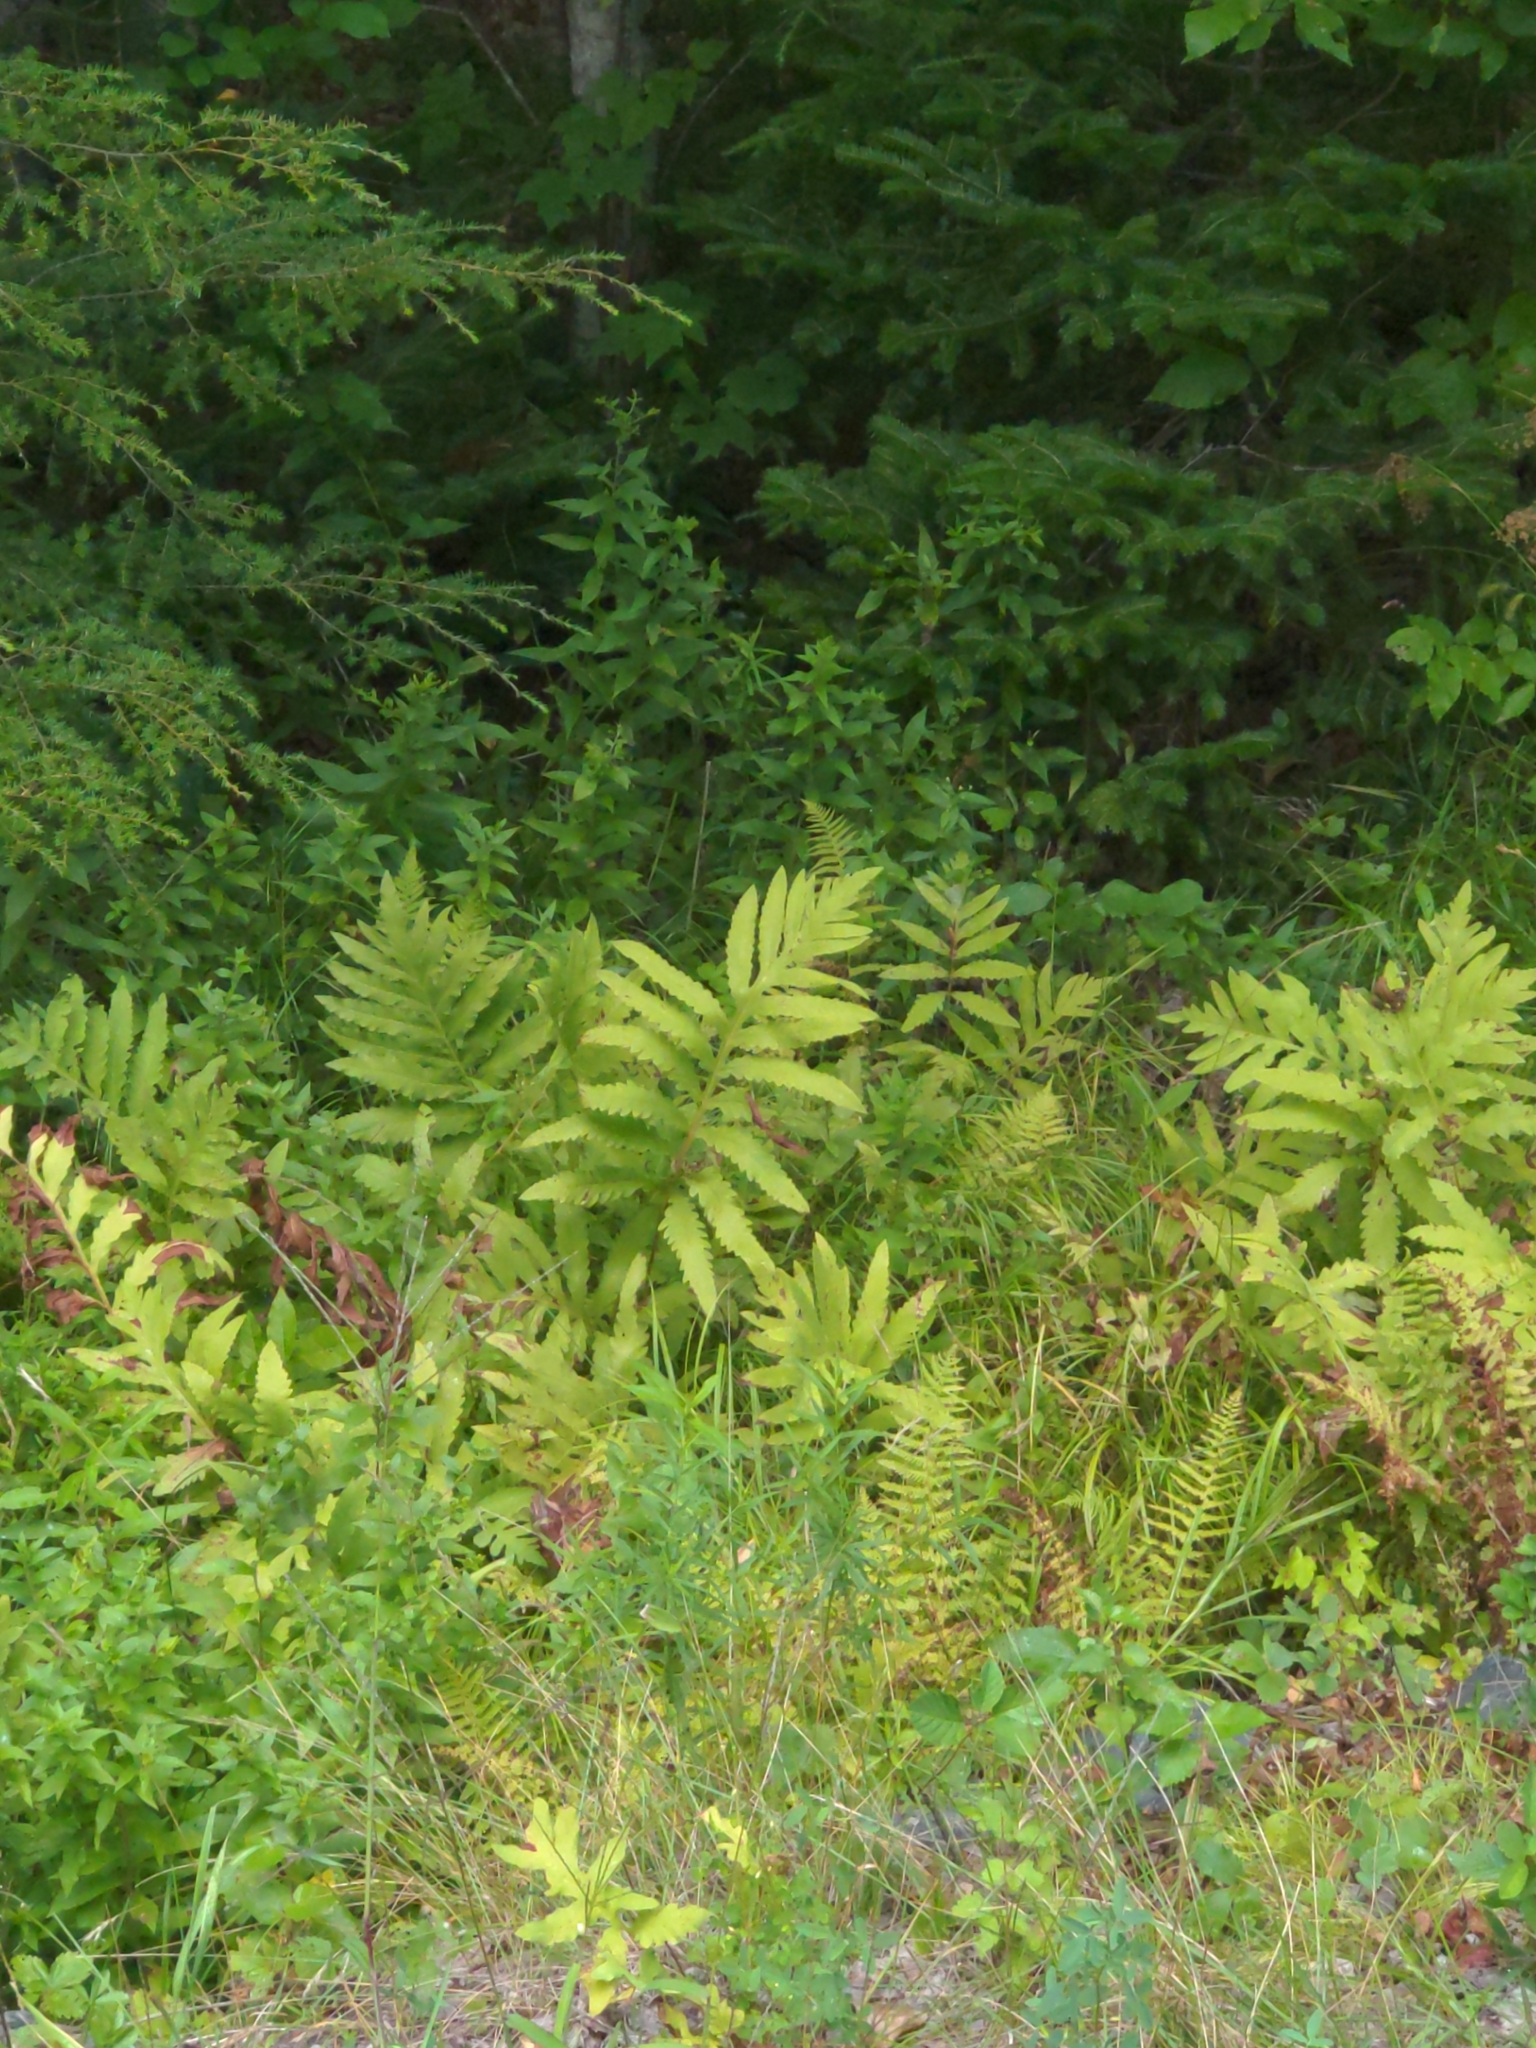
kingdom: Plantae
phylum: Tracheophyta
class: Polypodiopsida
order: Polypodiales
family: Onocleaceae
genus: Onoclea
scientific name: Onoclea sensibilis
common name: Sensitive fern
